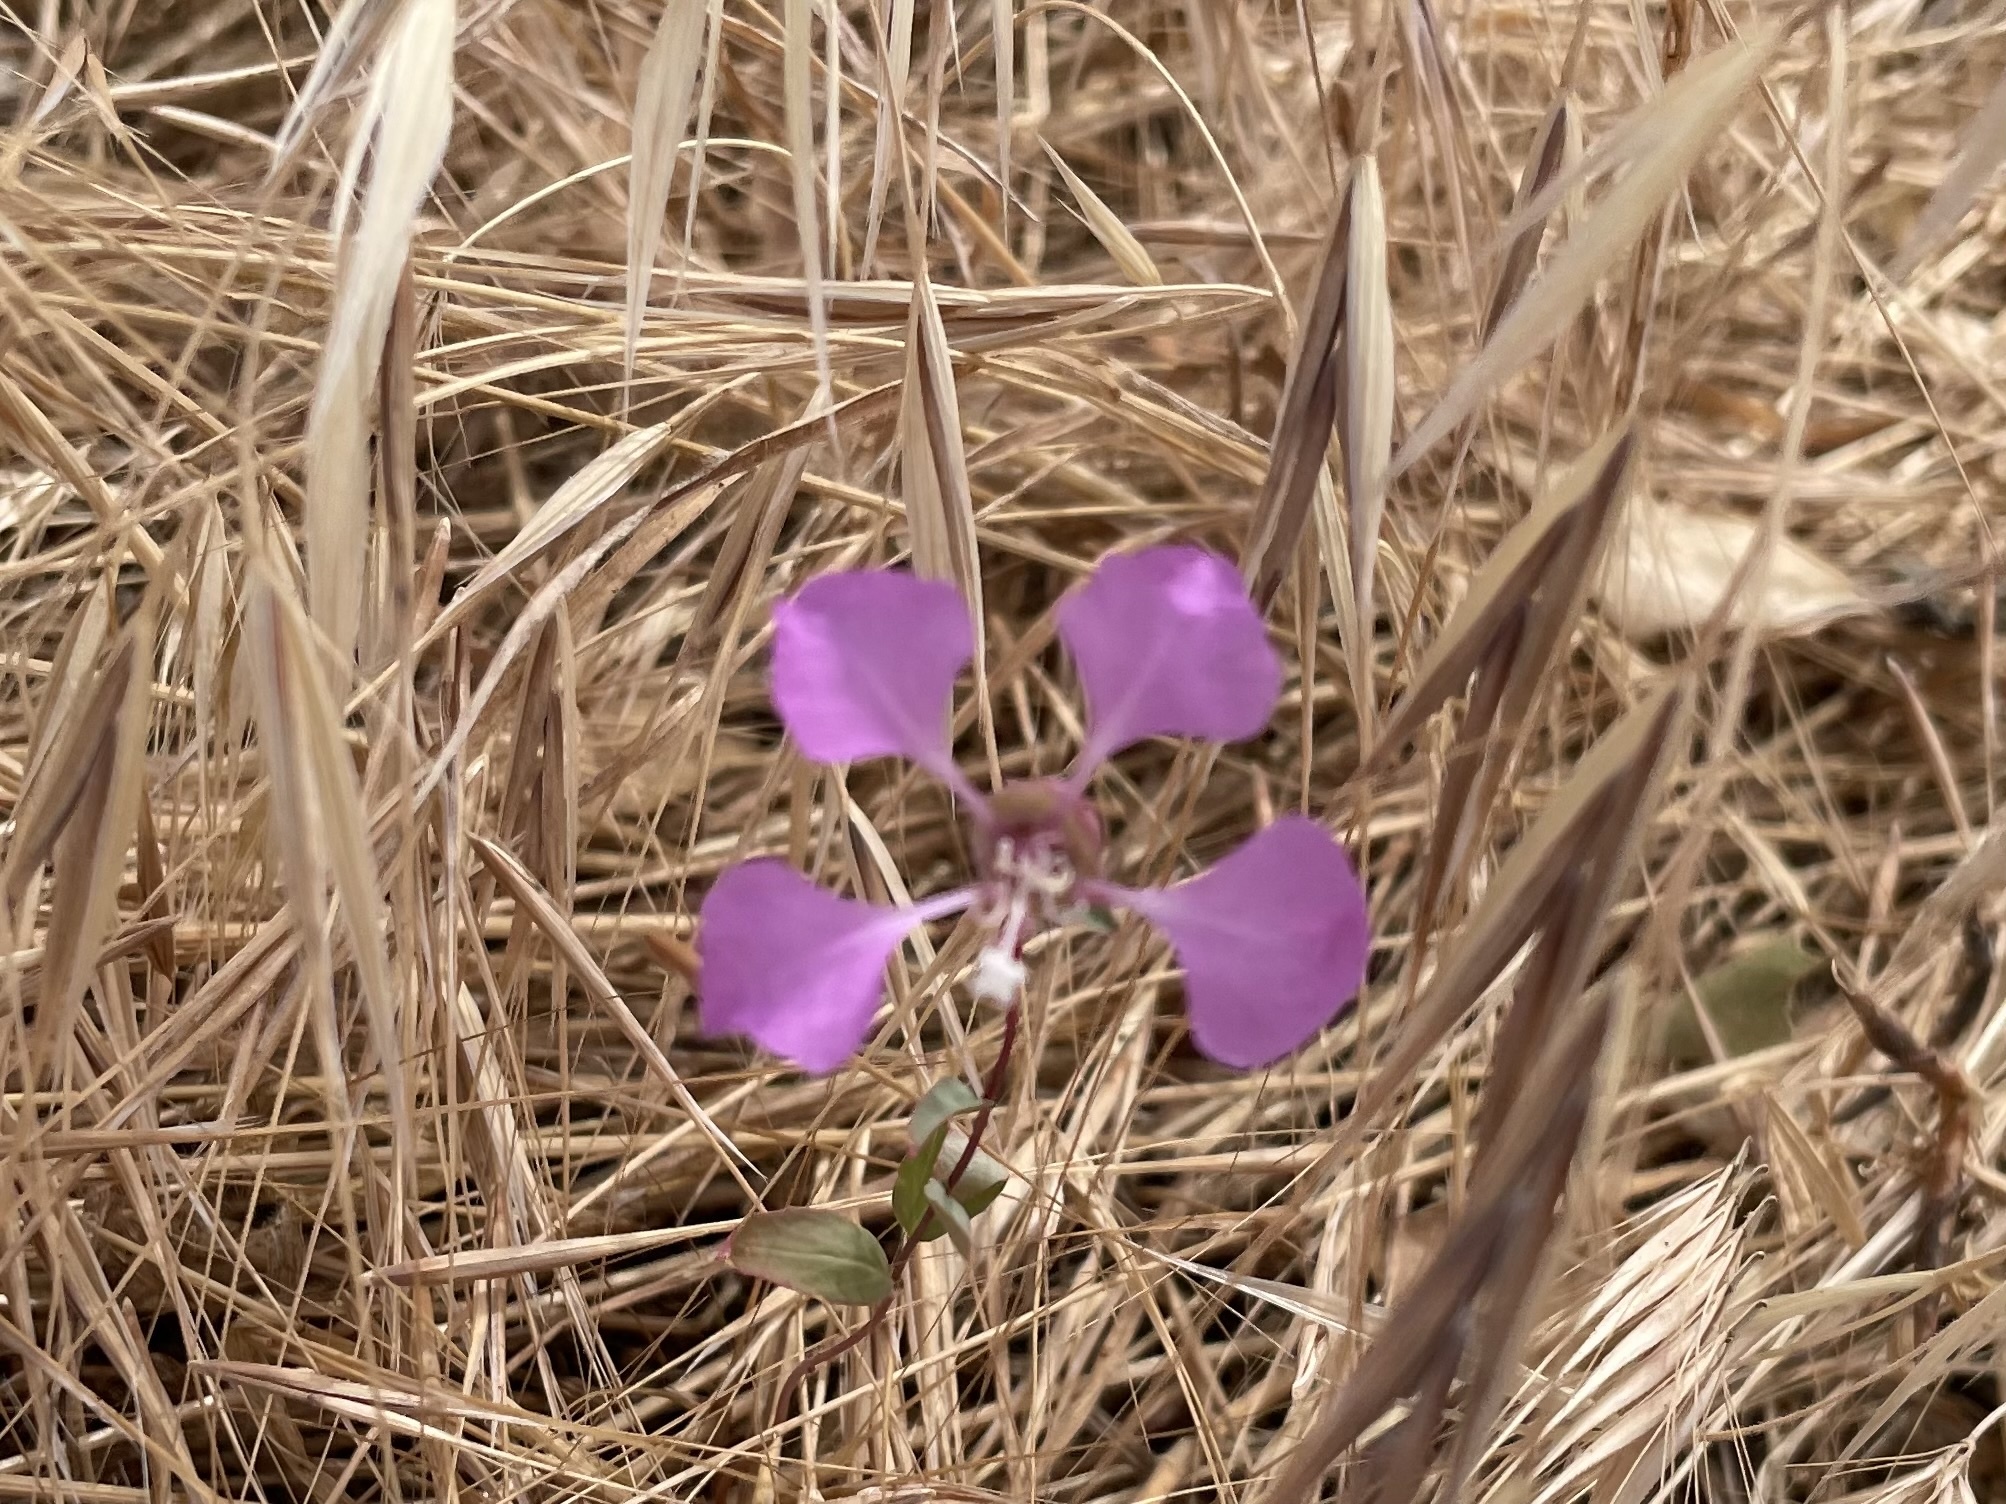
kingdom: Plantae
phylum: Tracheophyta
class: Magnoliopsida
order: Myrtales
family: Onagraceae
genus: Clarkia
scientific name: Clarkia unguiculata
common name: Clarkia
